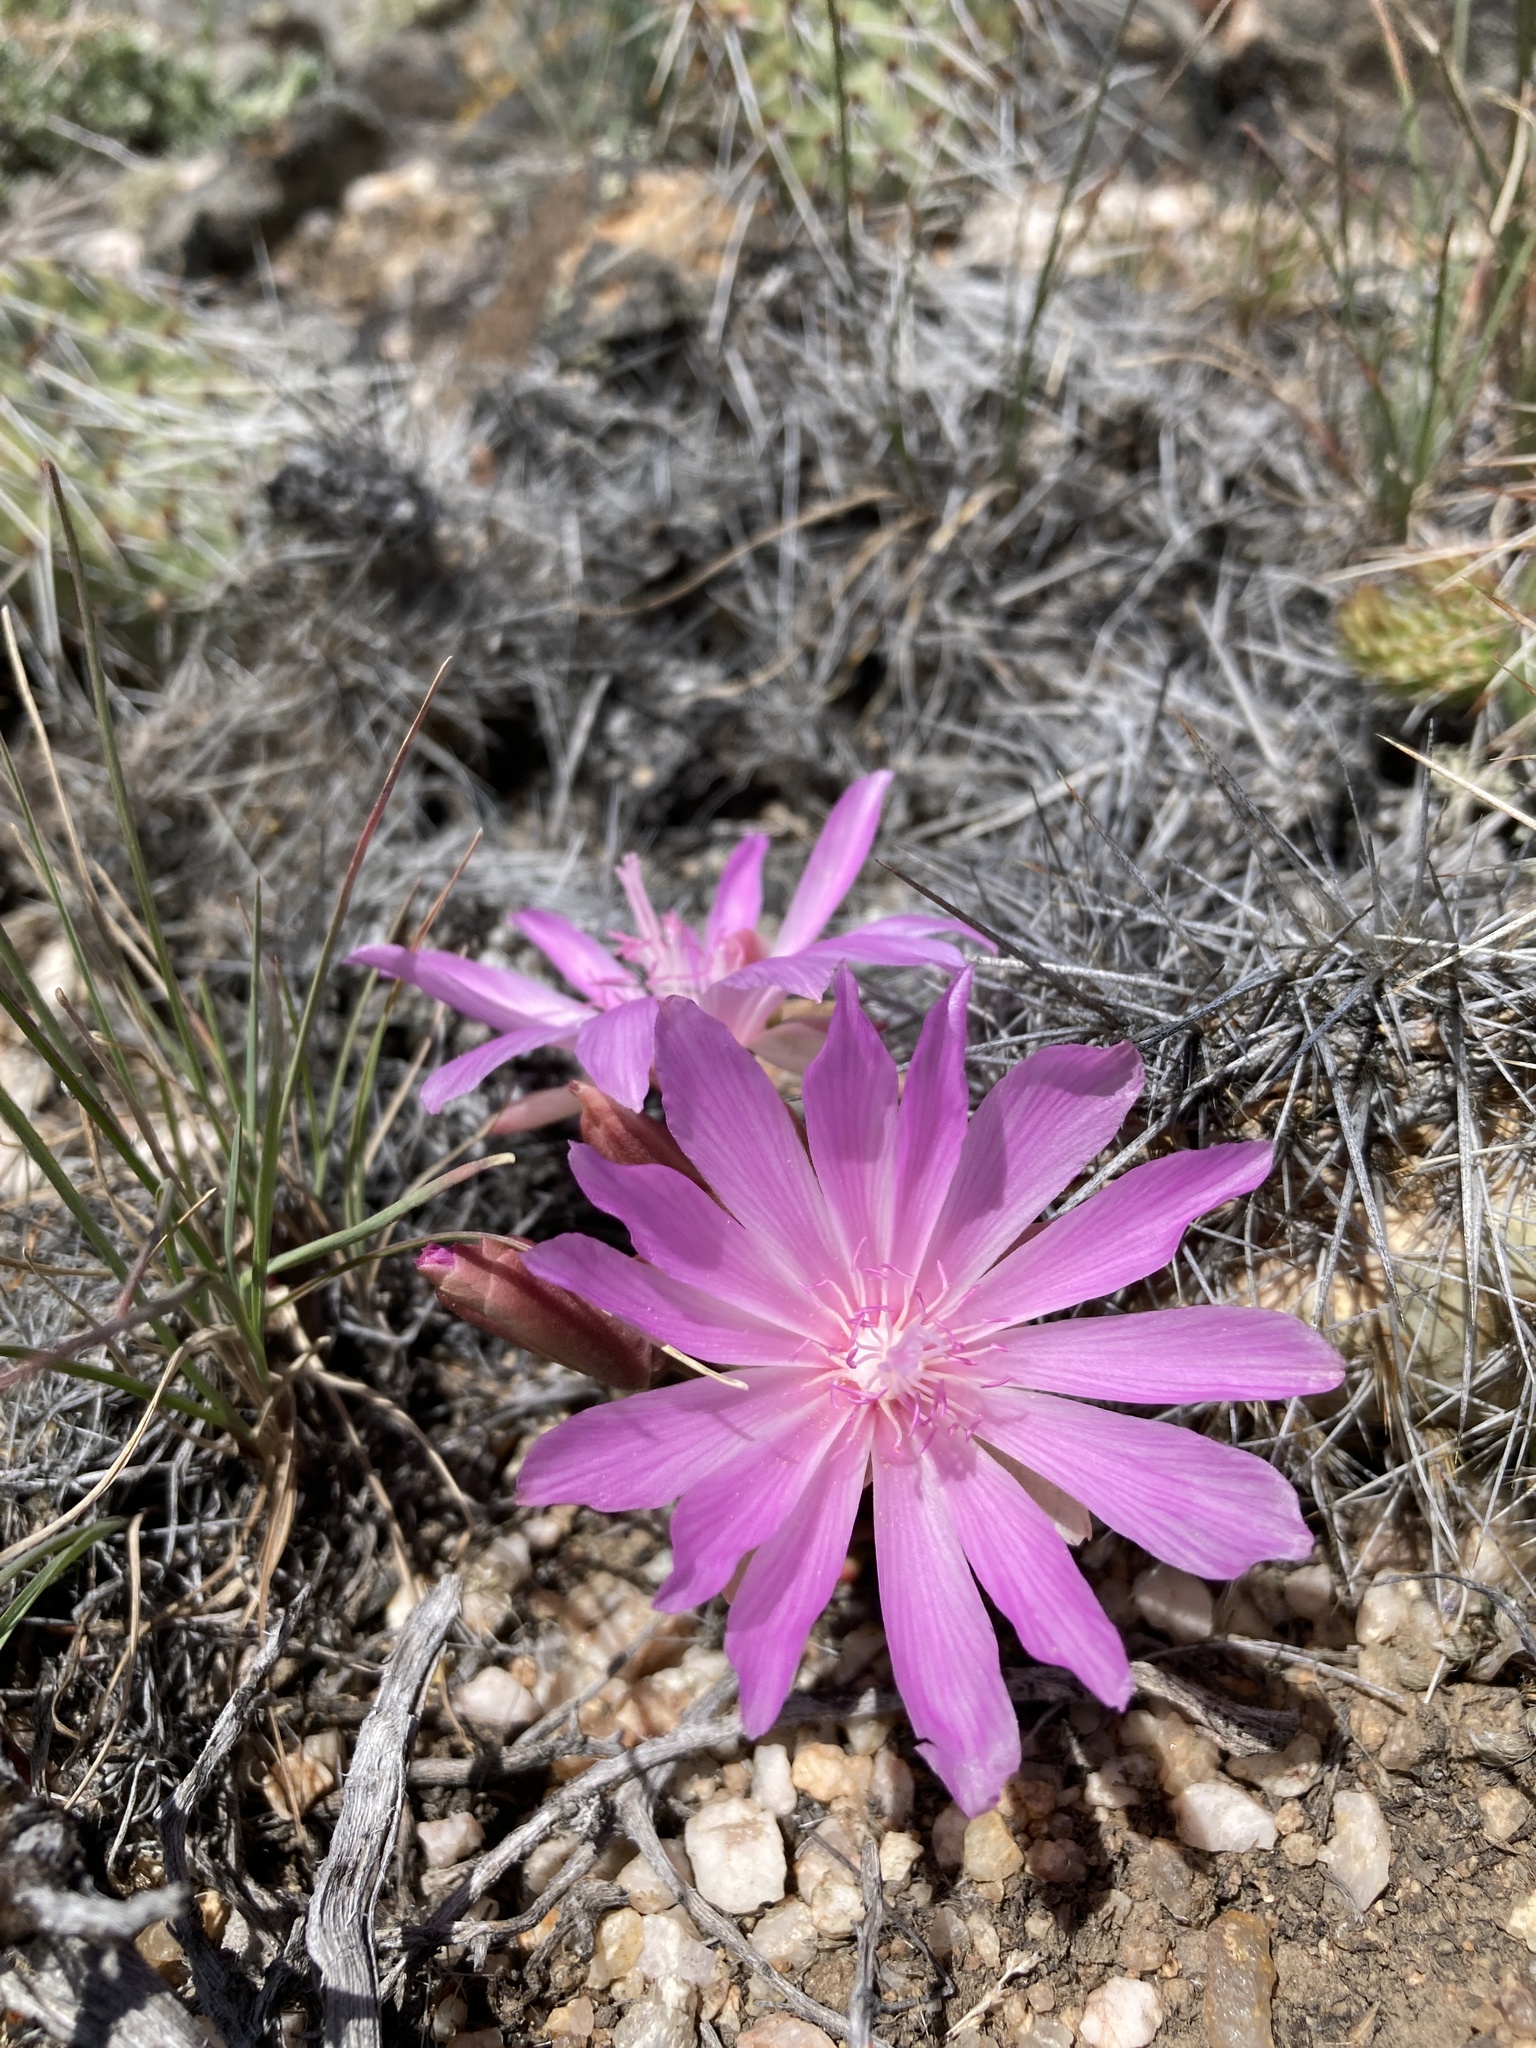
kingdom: Plantae
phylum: Tracheophyta
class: Magnoliopsida
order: Caryophyllales
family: Montiaceae
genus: Lewisia
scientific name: Lewisia rediviva
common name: Bitter-root
